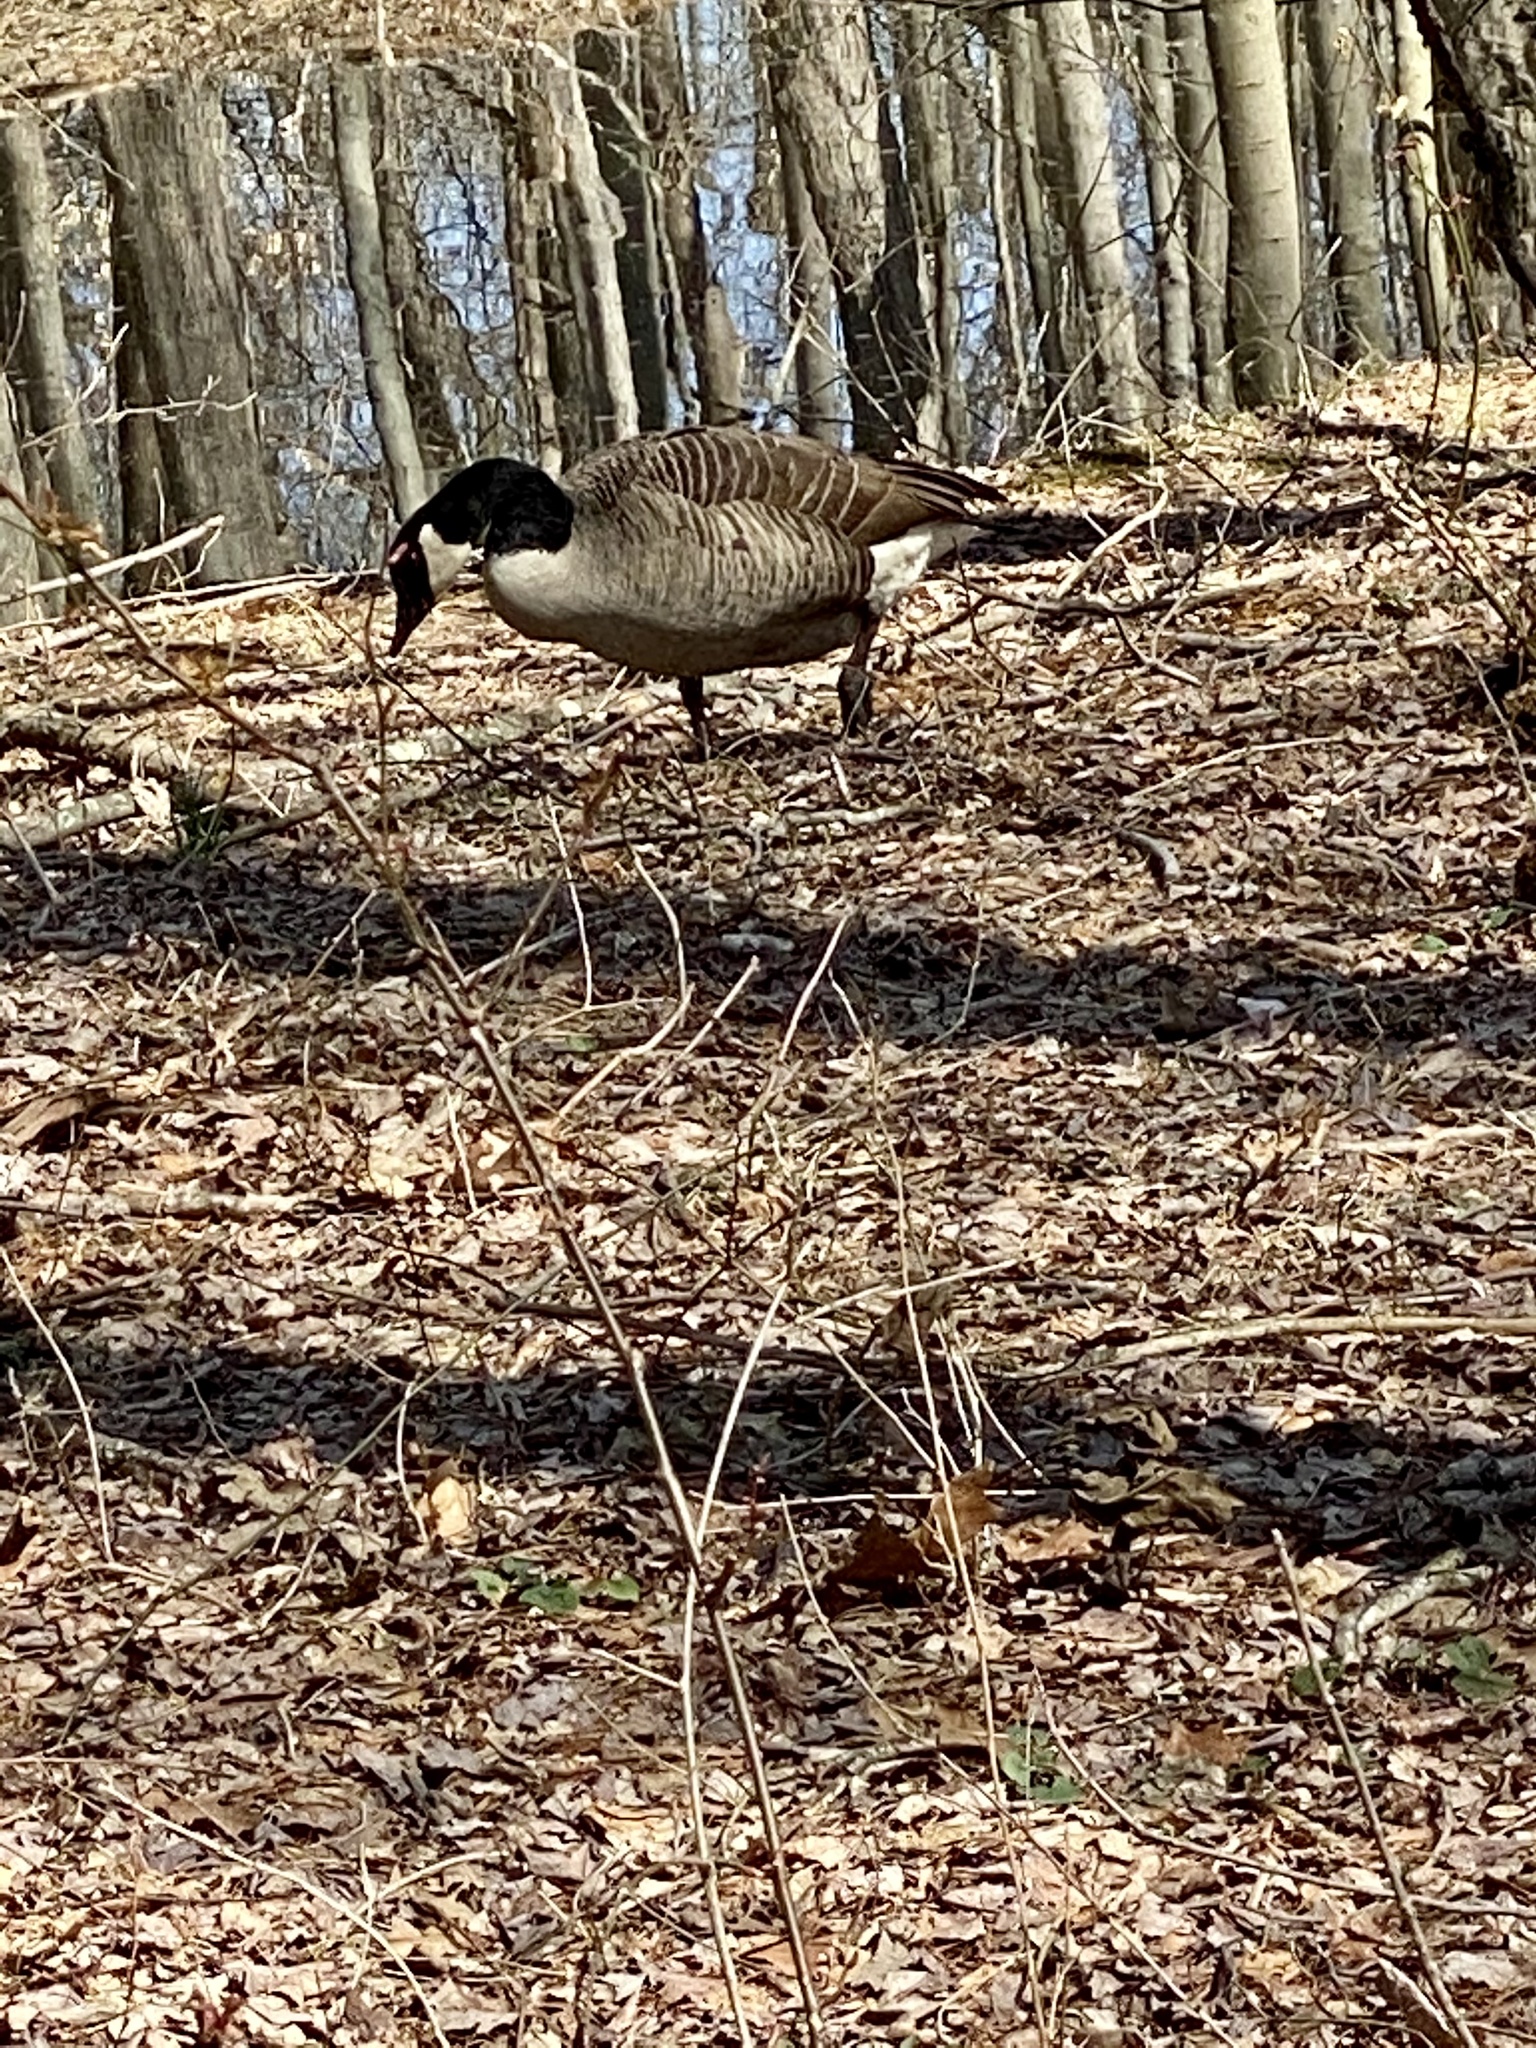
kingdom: Animalia
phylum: Chordata
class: Aves
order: Anseriformes
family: Anatidae
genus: Branta
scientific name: Branta canadensis
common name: Canada goose
